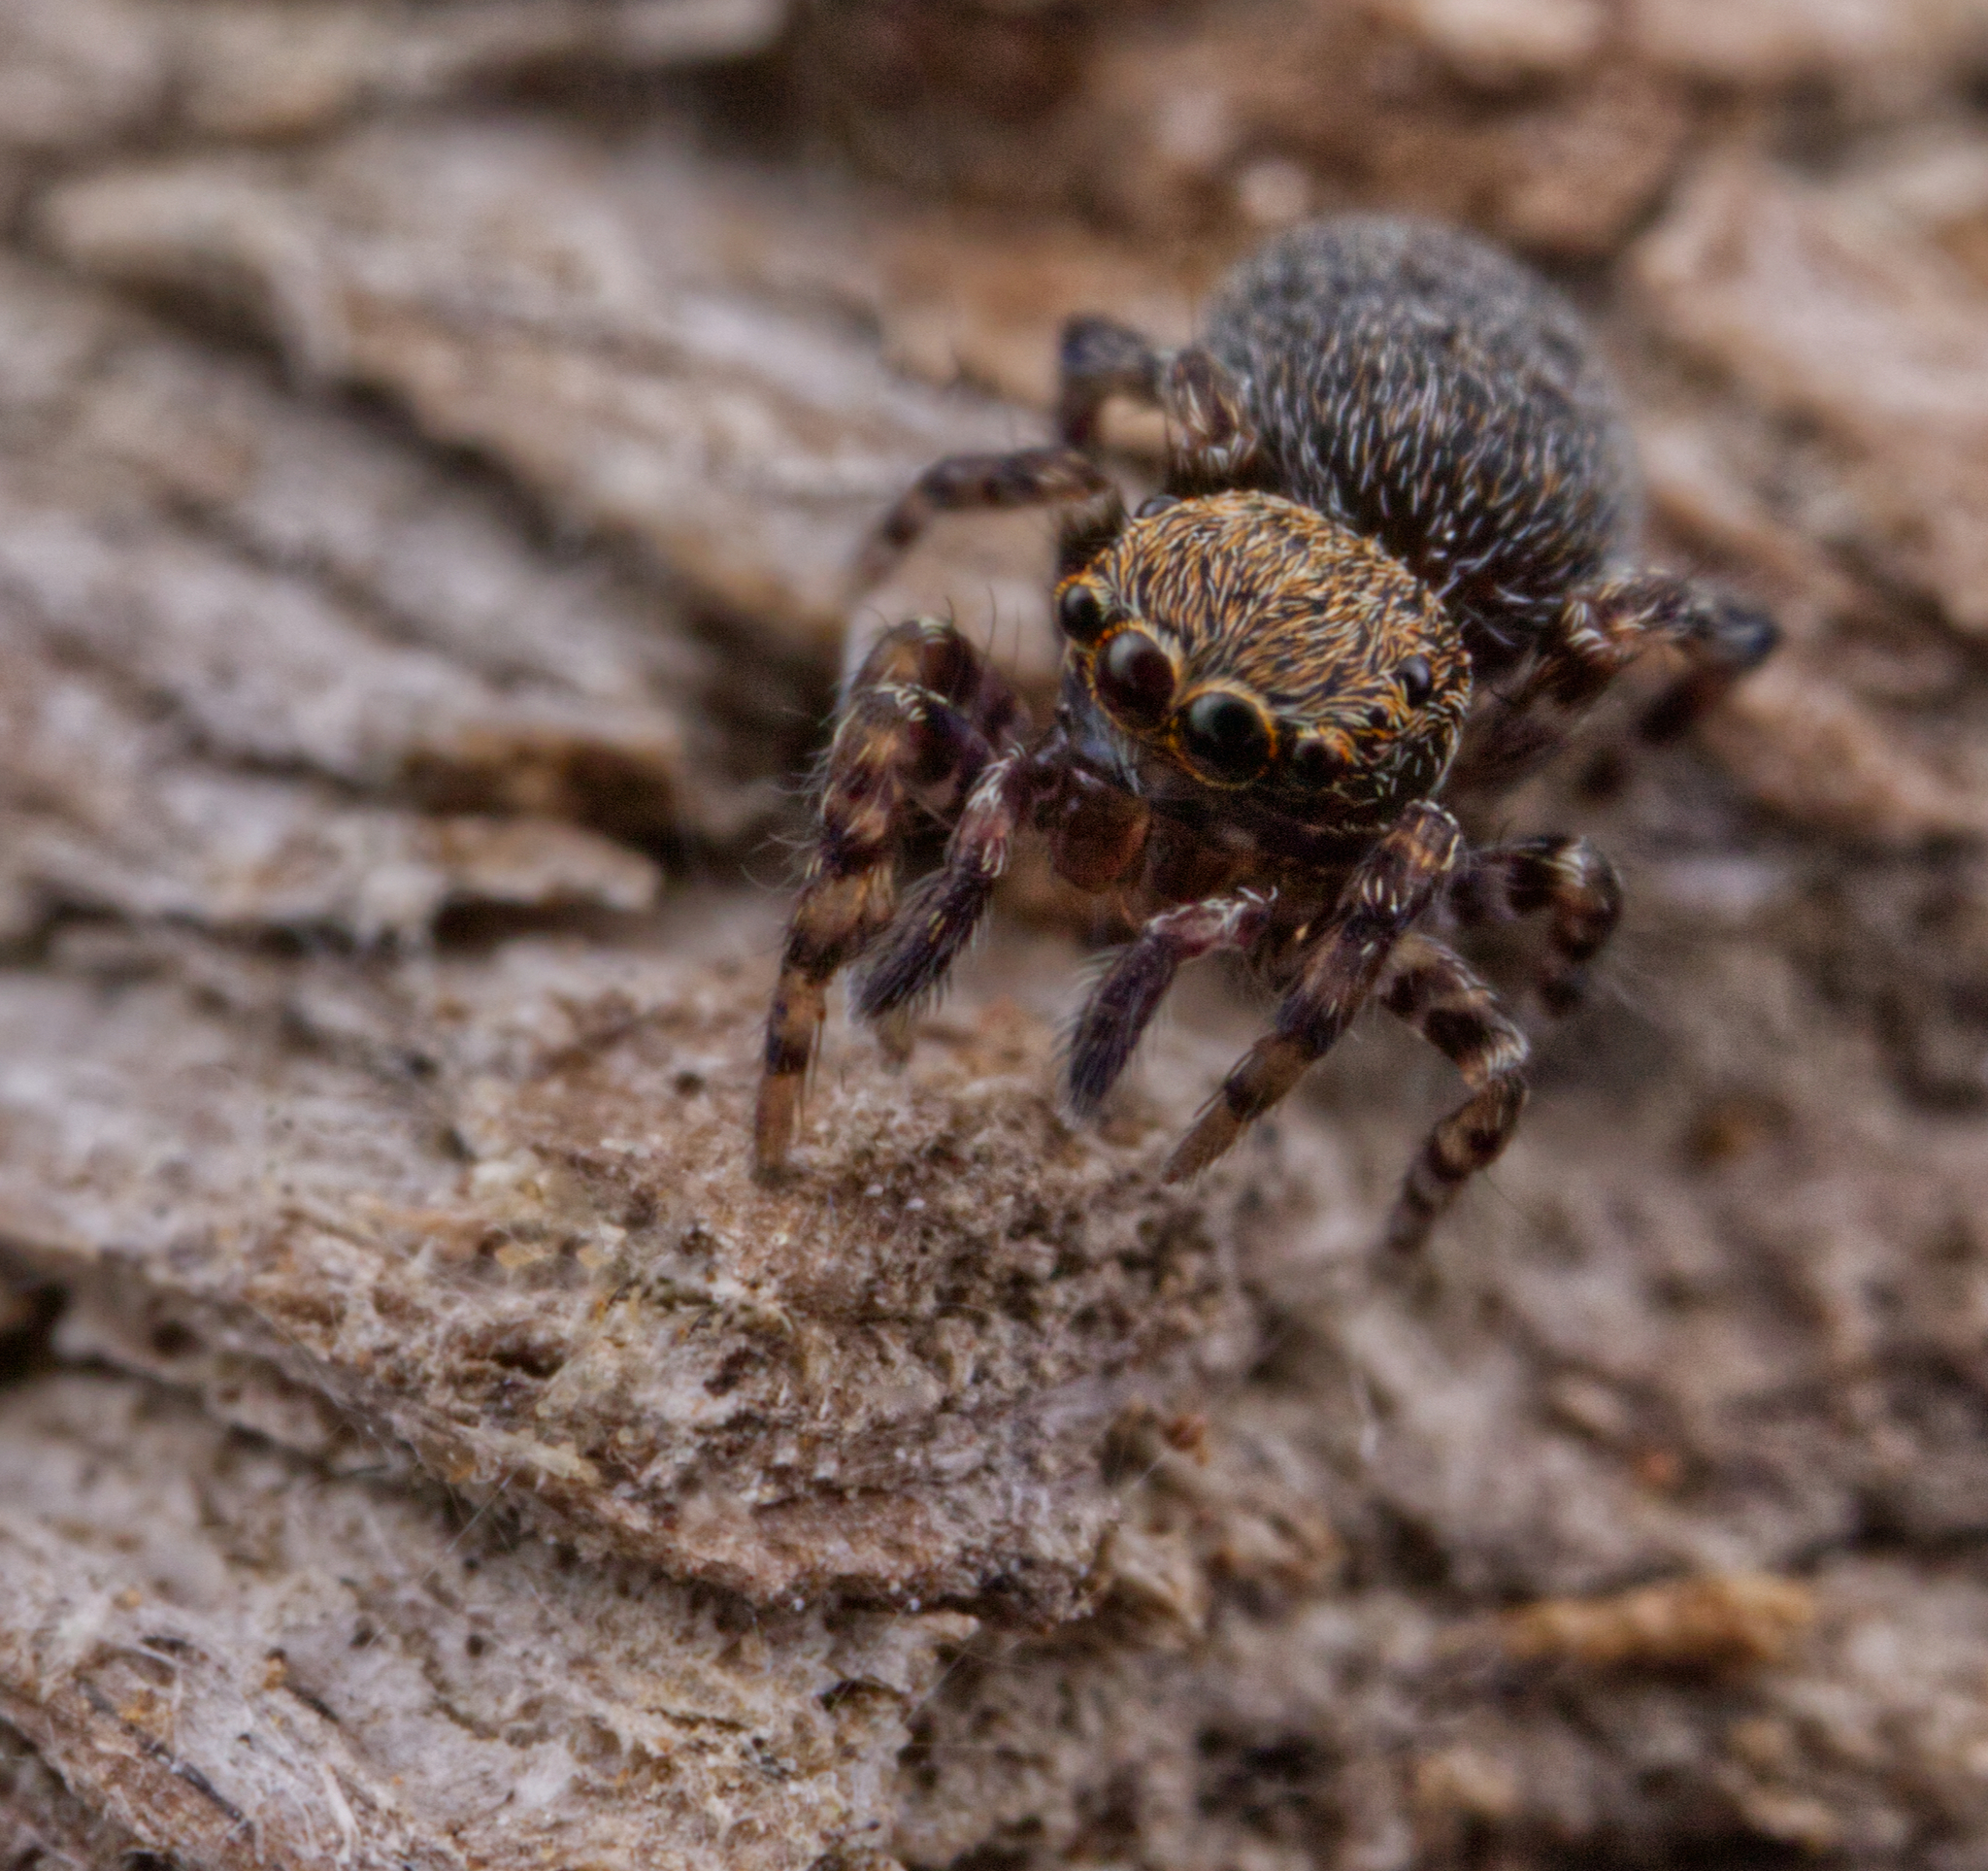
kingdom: Animalia
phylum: Arthropoda
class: Arachnida
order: Araneae
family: Salticidae
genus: Attinella
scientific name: Attinella concolor
